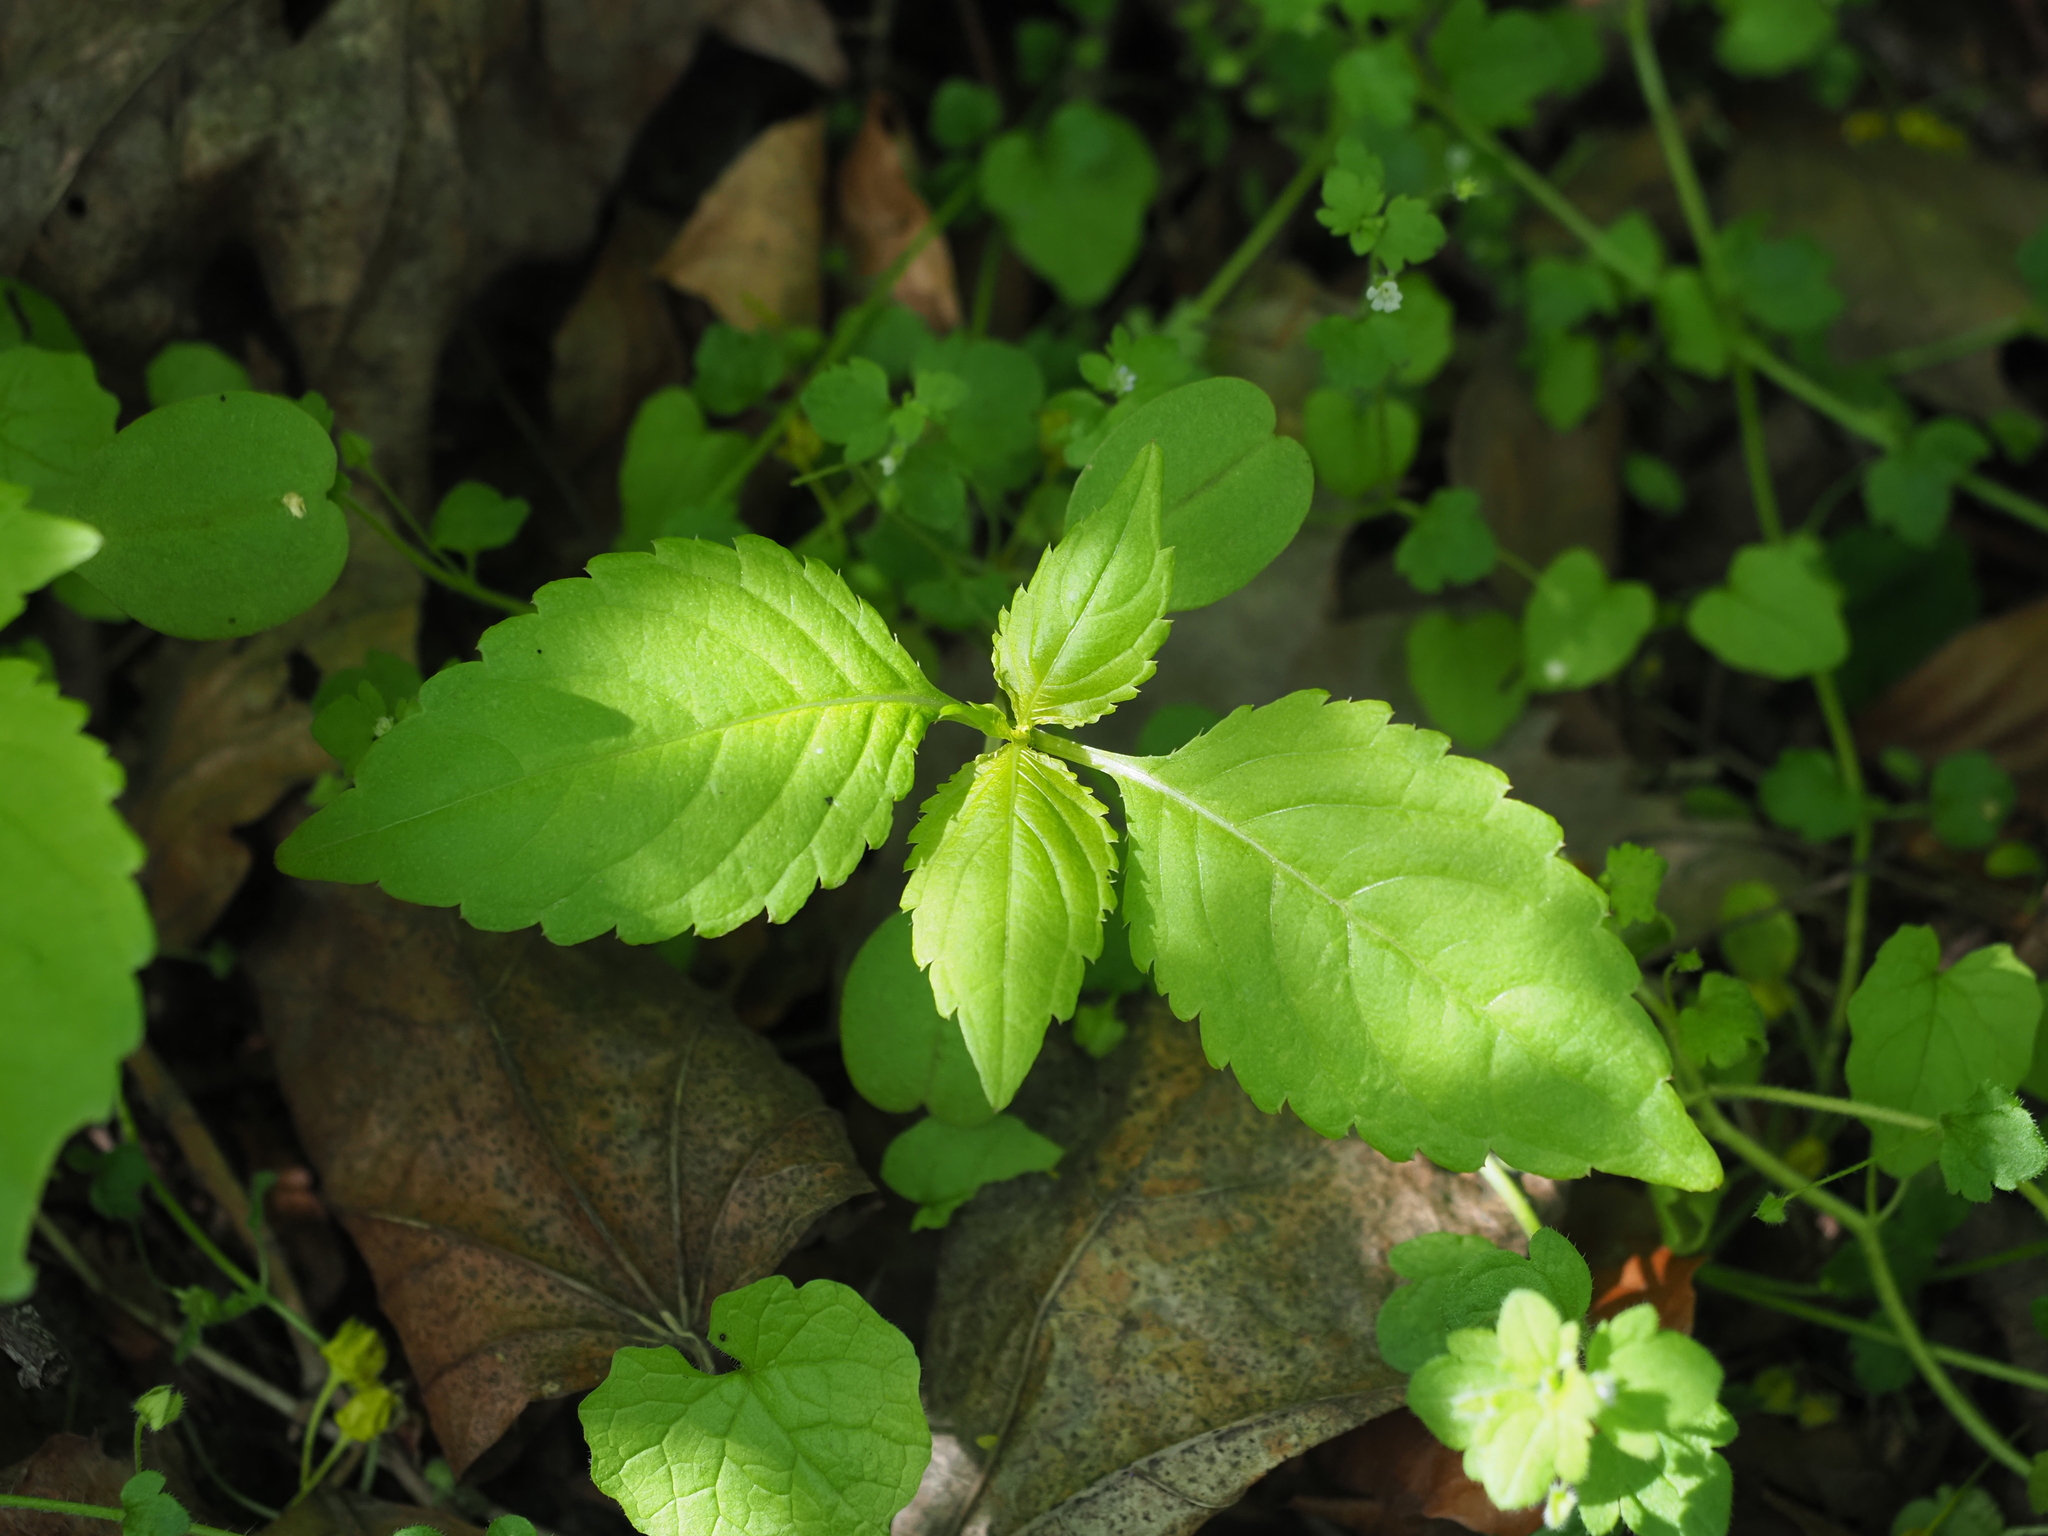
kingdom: Plantae
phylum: Tracheophyta
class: Magnoliopsida
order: Ericales
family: Balsaminaceae
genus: Impatiens
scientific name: Impatiens parviflora
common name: Small balsam
